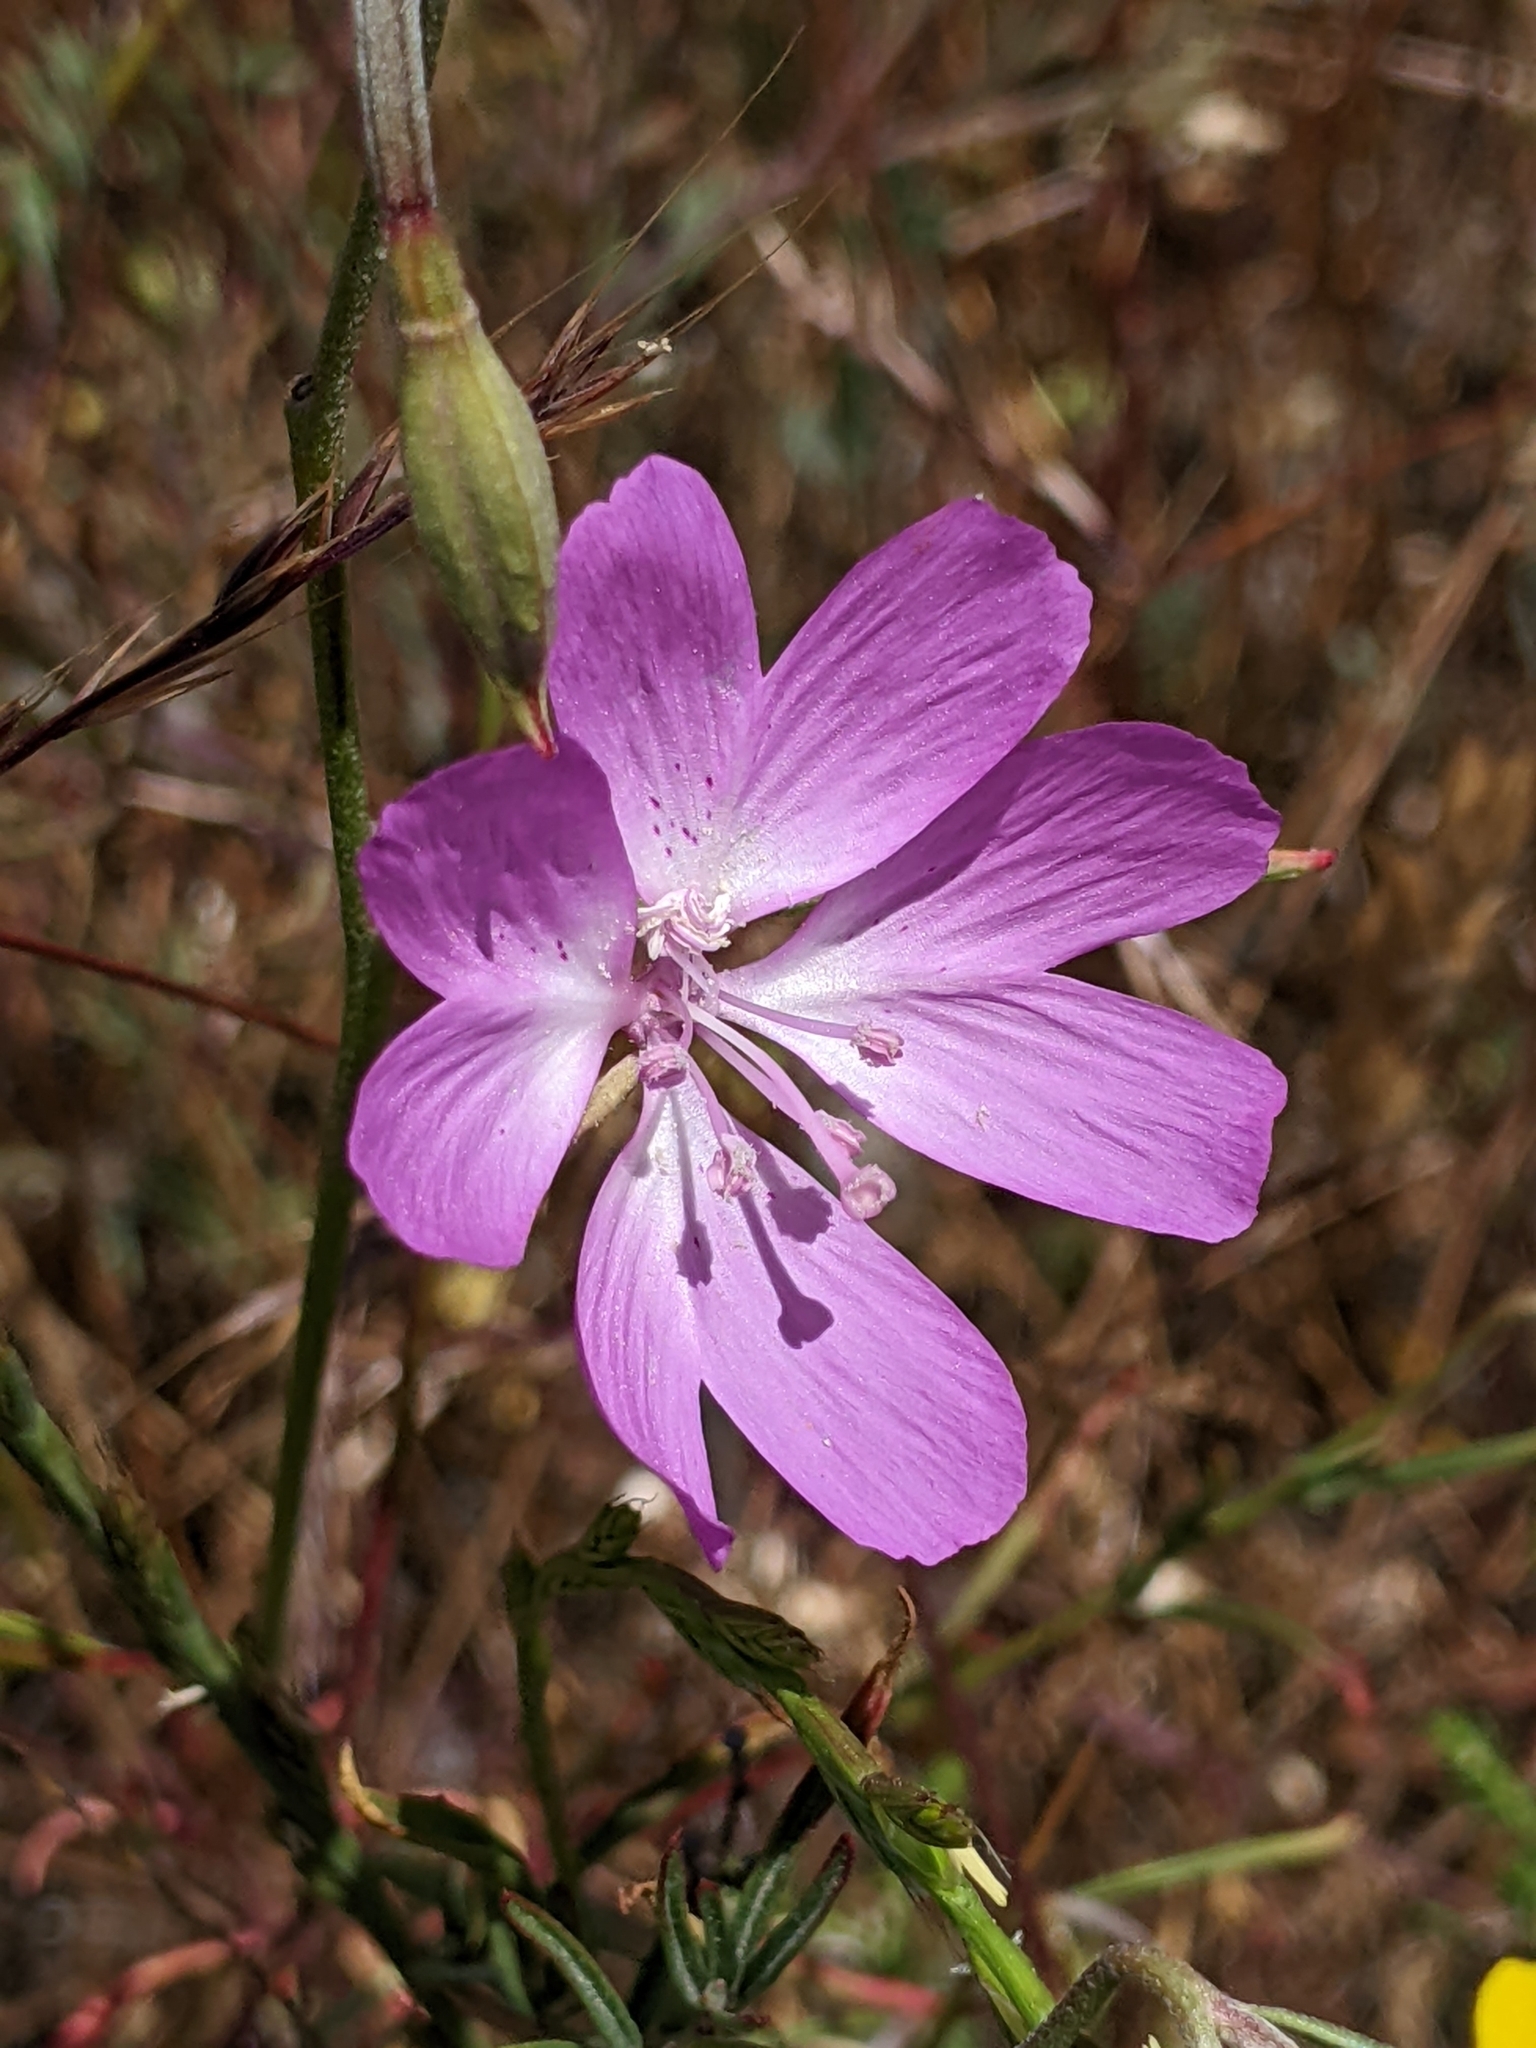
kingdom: Plantae
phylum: Tracheophyta
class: Magnoliopsida
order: Myrtales
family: Onagraceae
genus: Clarkia
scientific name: Clarkia biloba
